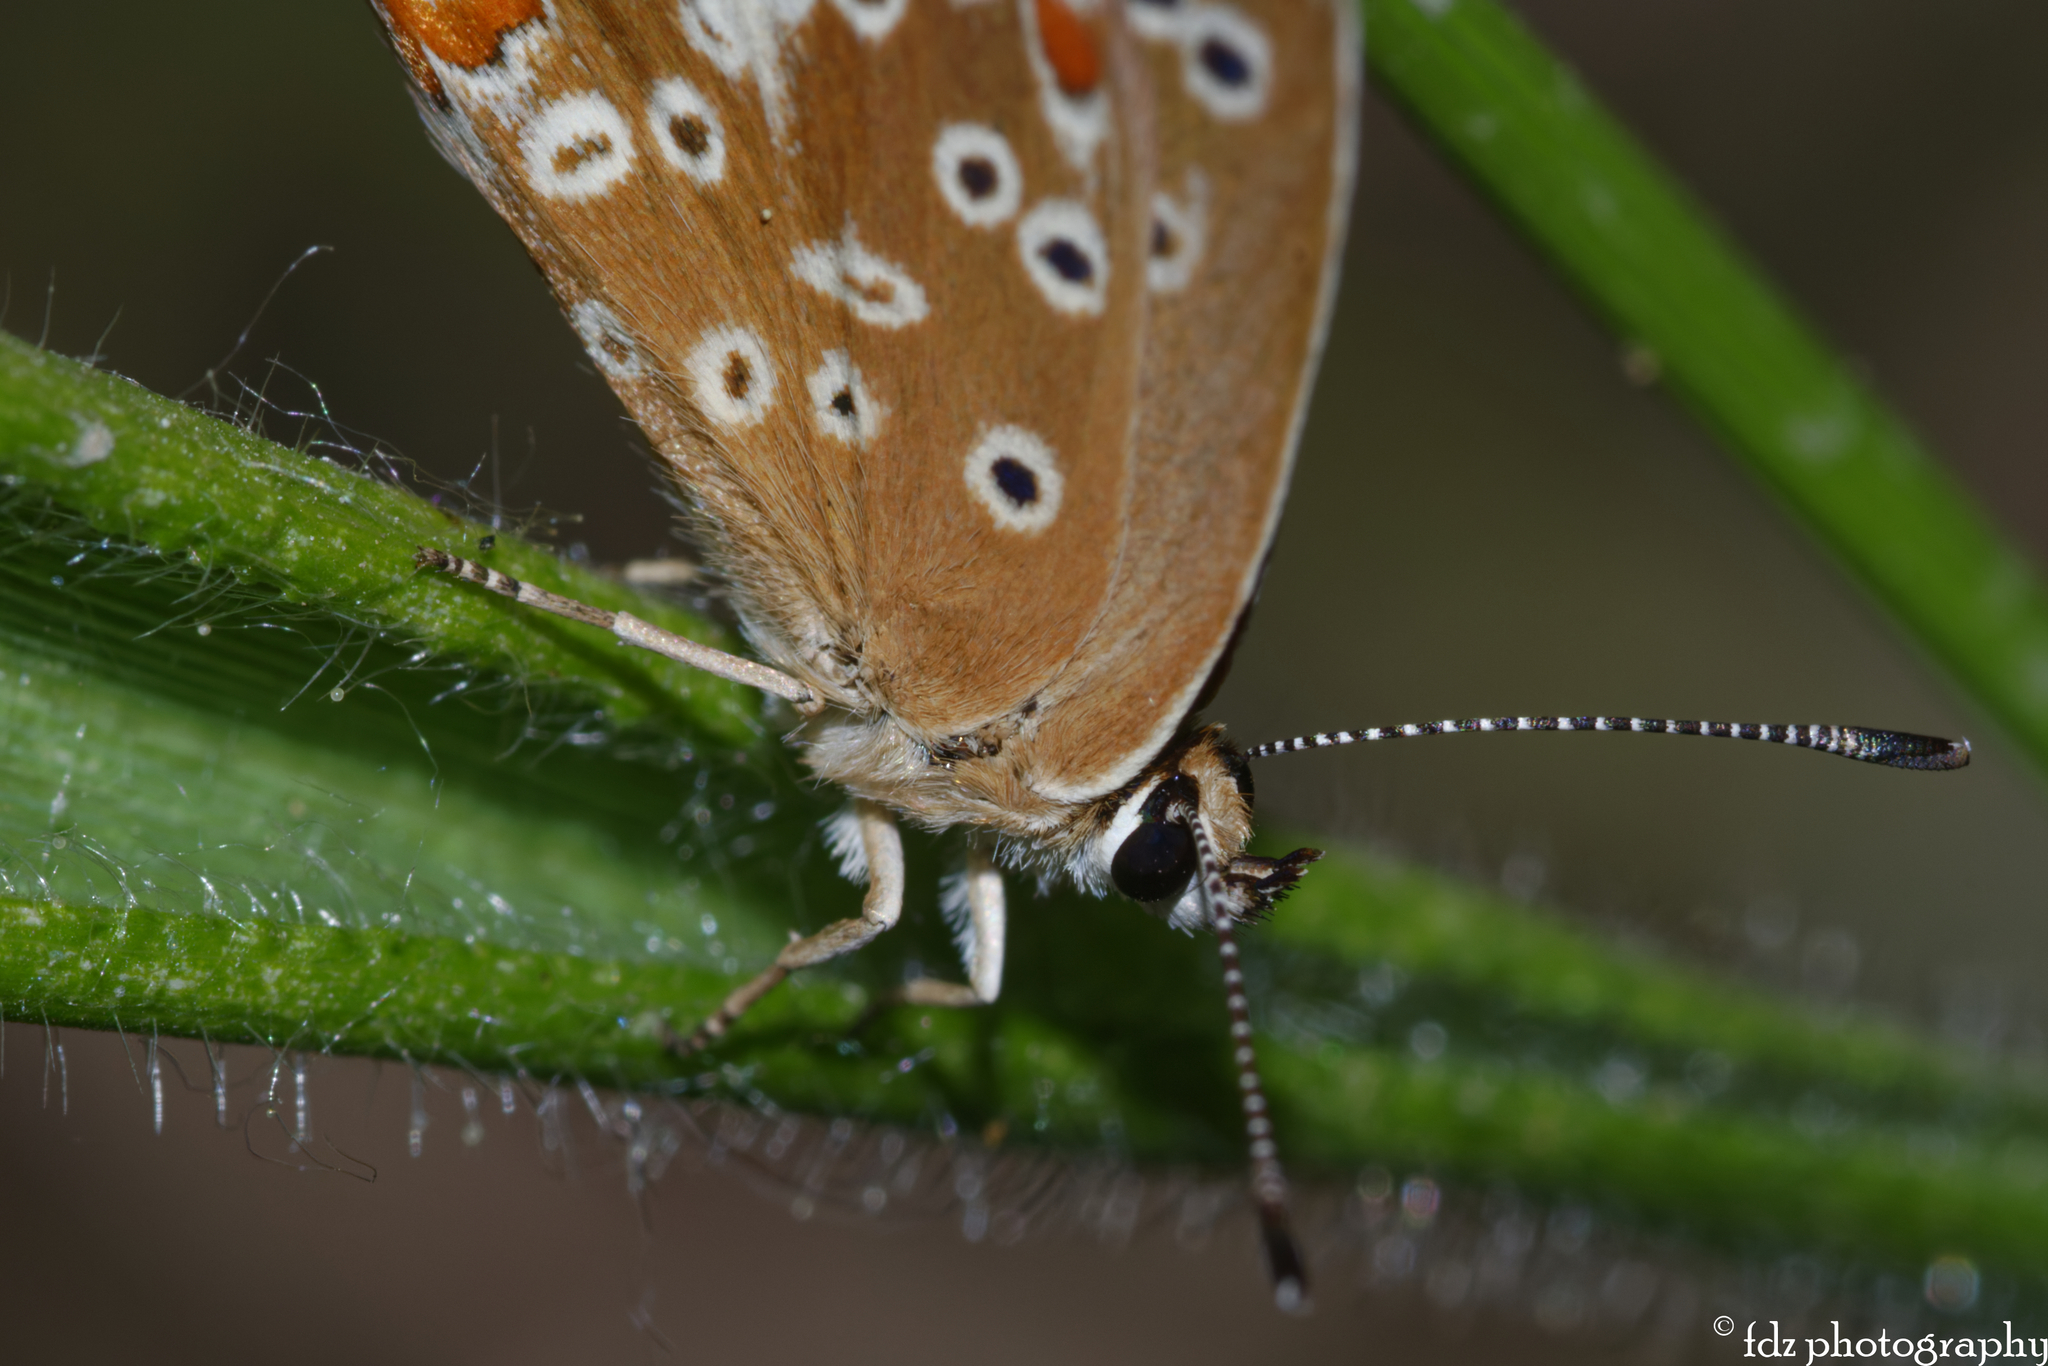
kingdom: Animalia
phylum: Arthropoda
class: Insecta
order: Lepidoptera
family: Lycaenidae
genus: Aricia
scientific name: Aricia cramera
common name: Eschscholtz´s brown  argus
